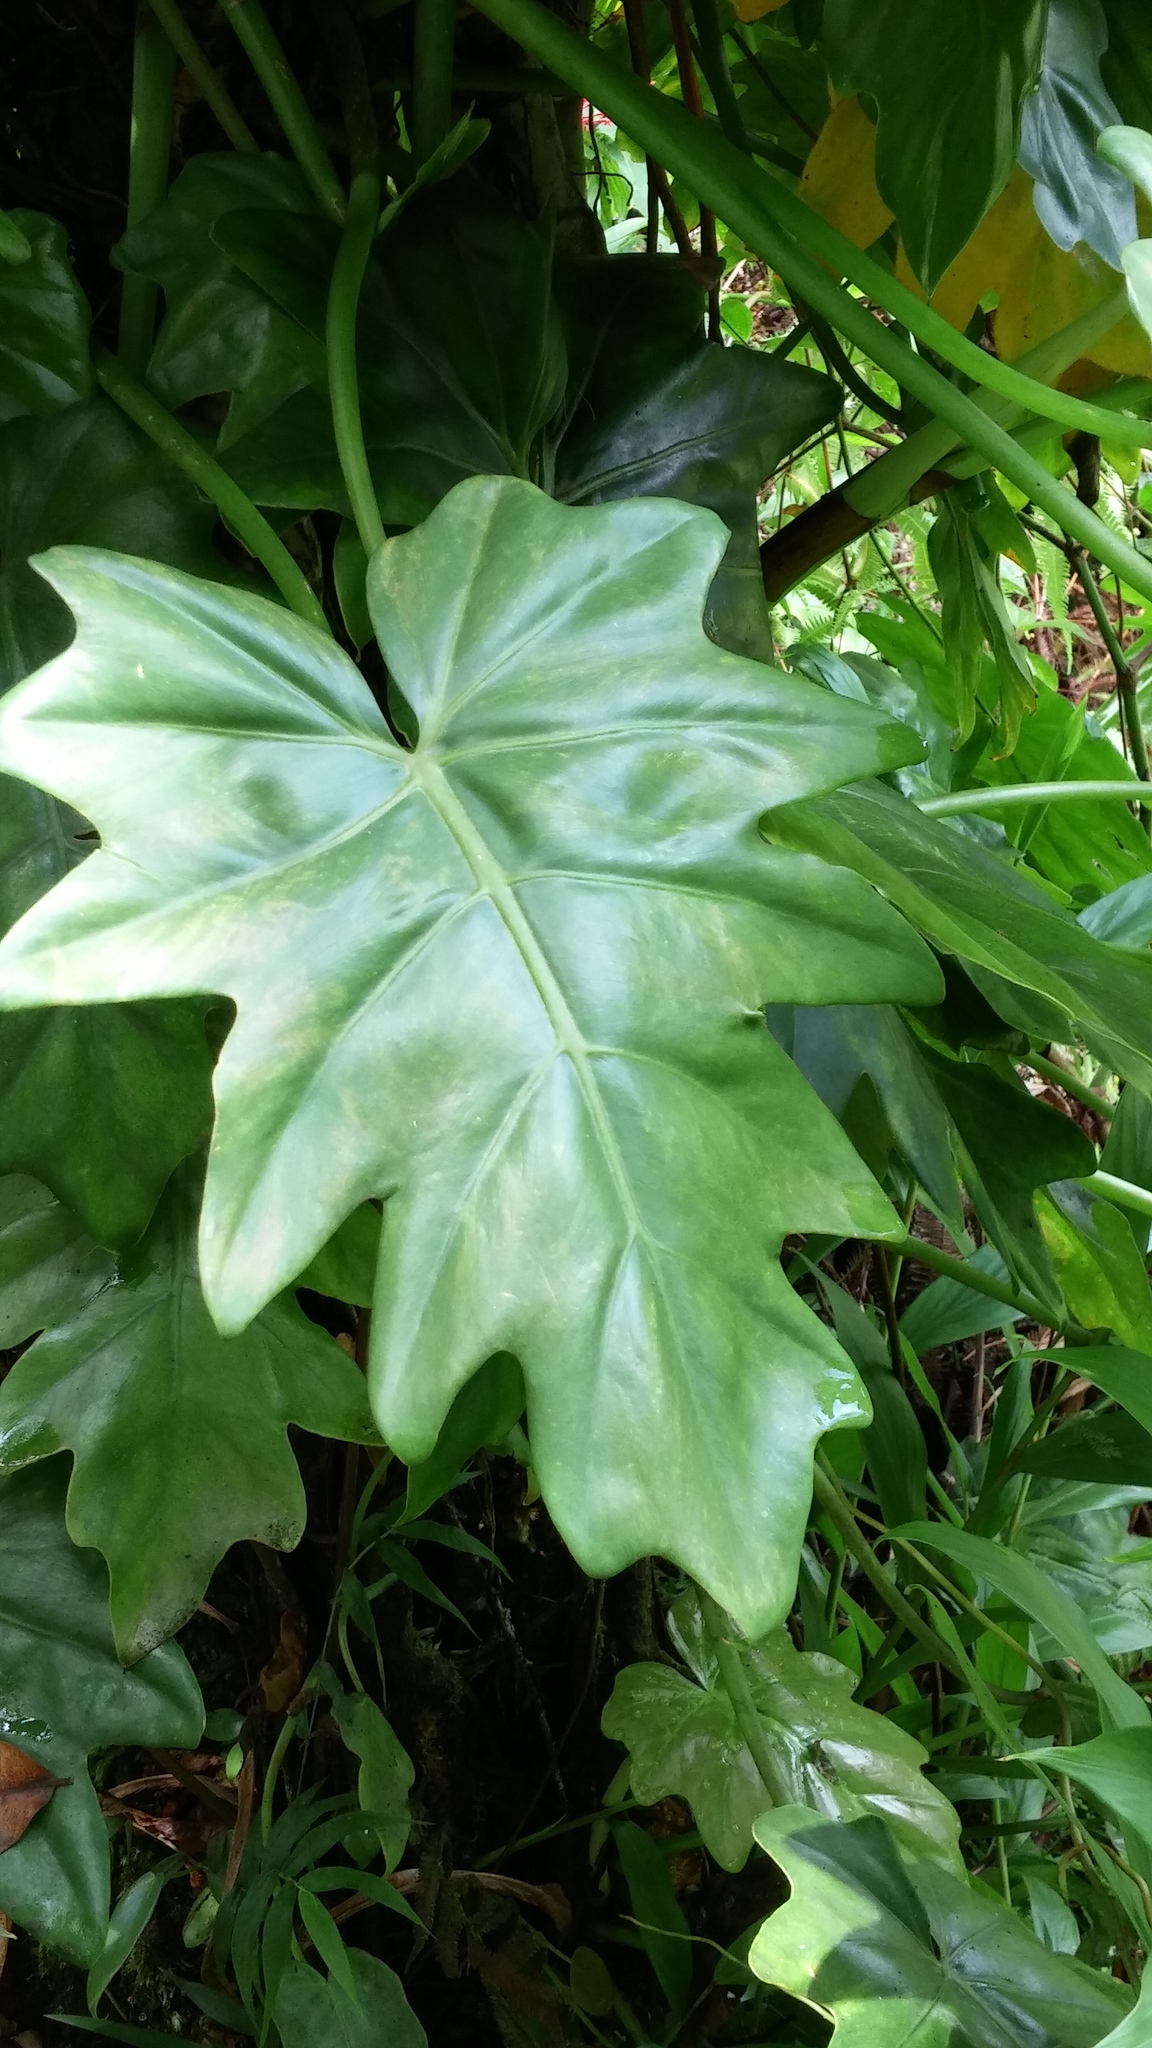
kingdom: Plantae
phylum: Tracheophyta
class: Liliopsida
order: Alismatales
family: Araceae
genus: Philodendron
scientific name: Philodendron lacerum
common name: Philodendron
